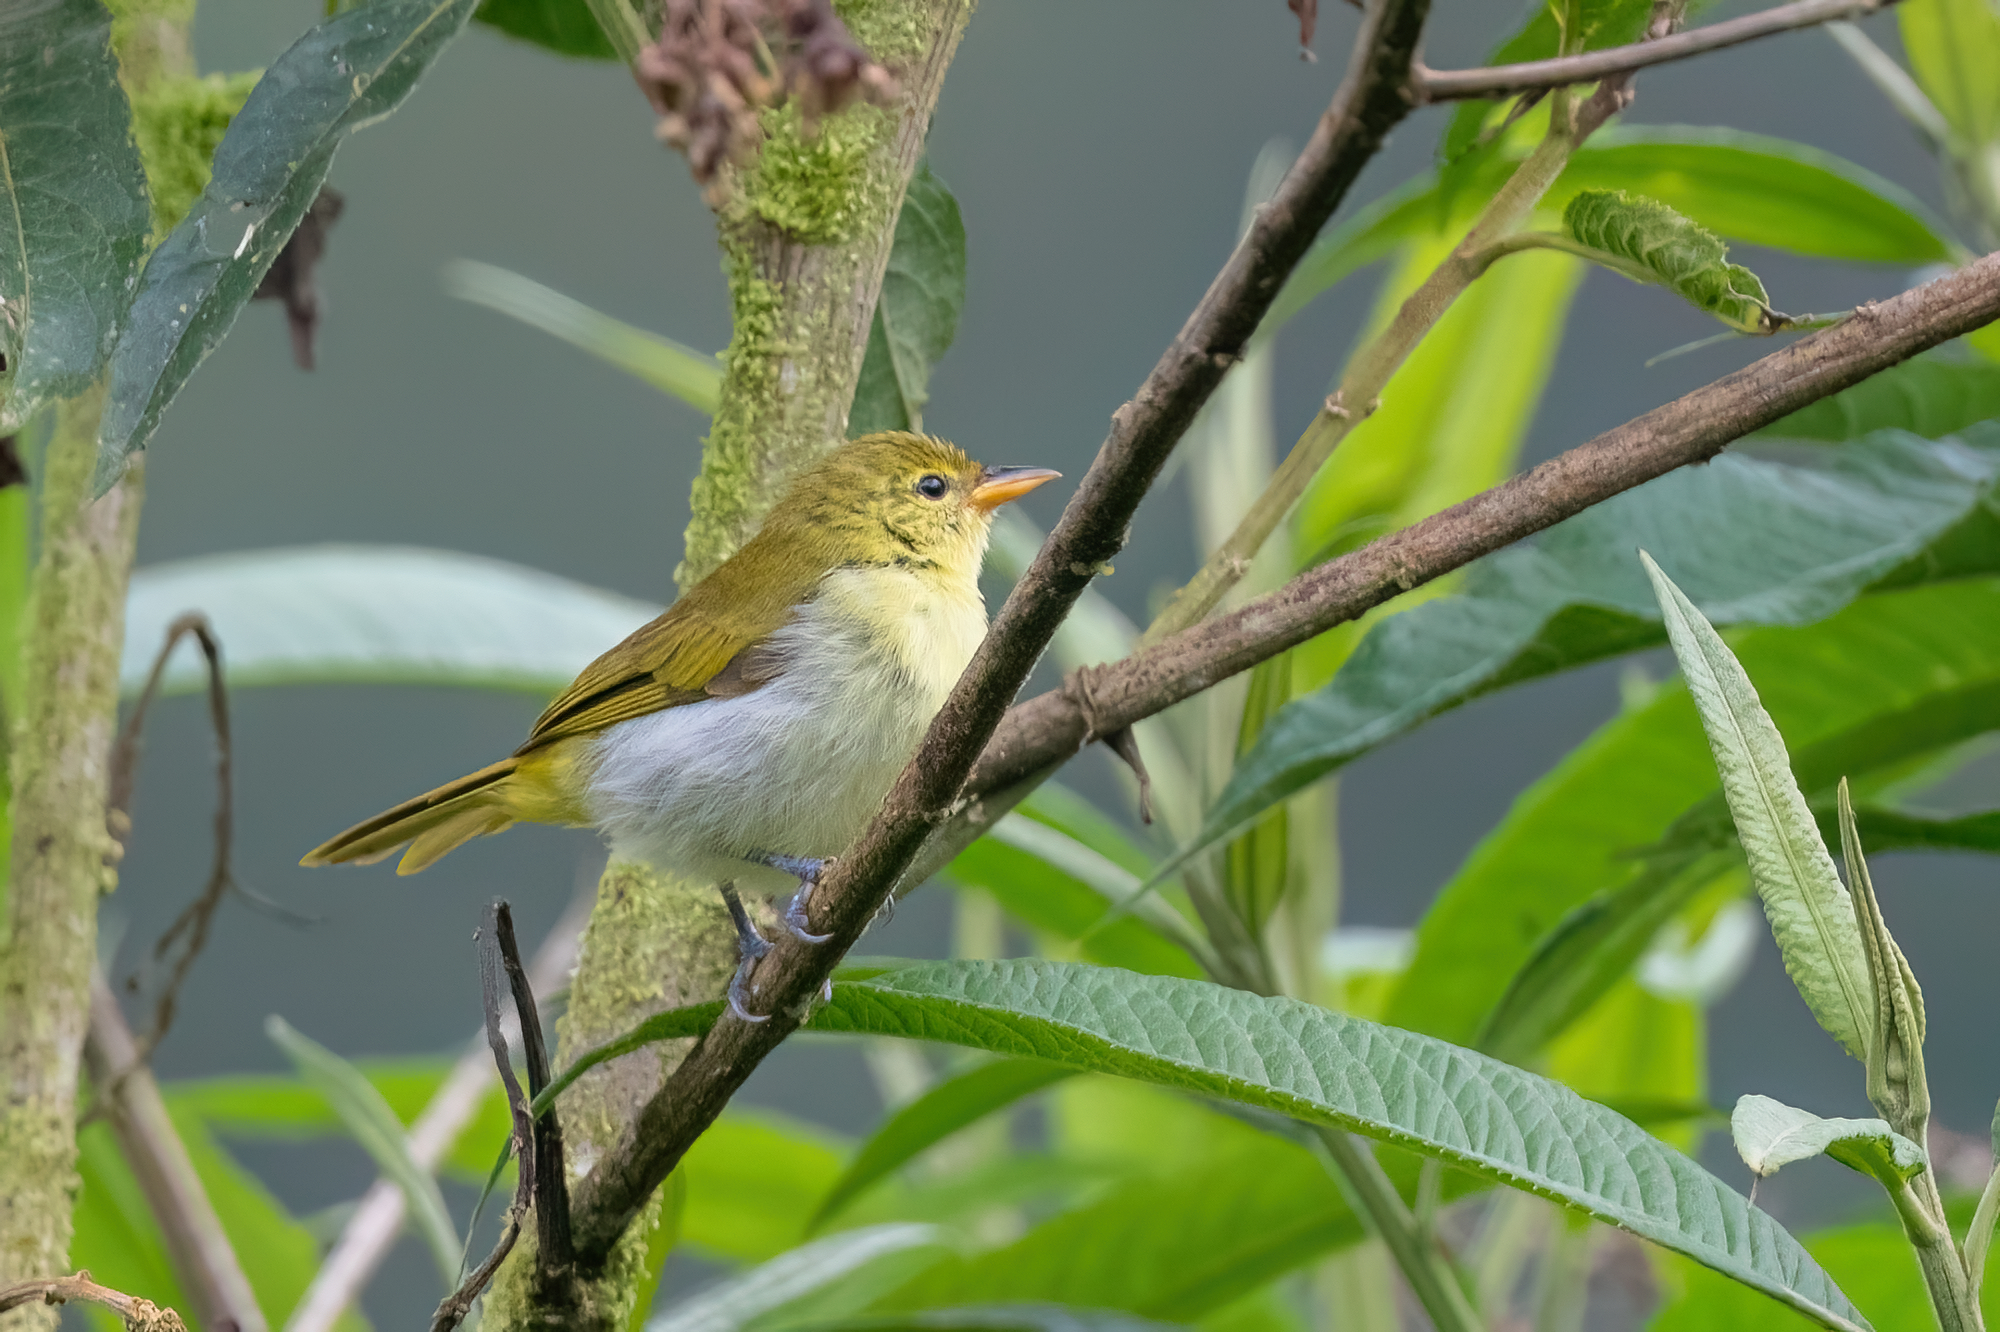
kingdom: Animalia
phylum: Chordata
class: Aves
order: Passeriformes
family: Thraupidae
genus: Hemithraupis
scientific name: Hemithraupis guira
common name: Guira tanager
